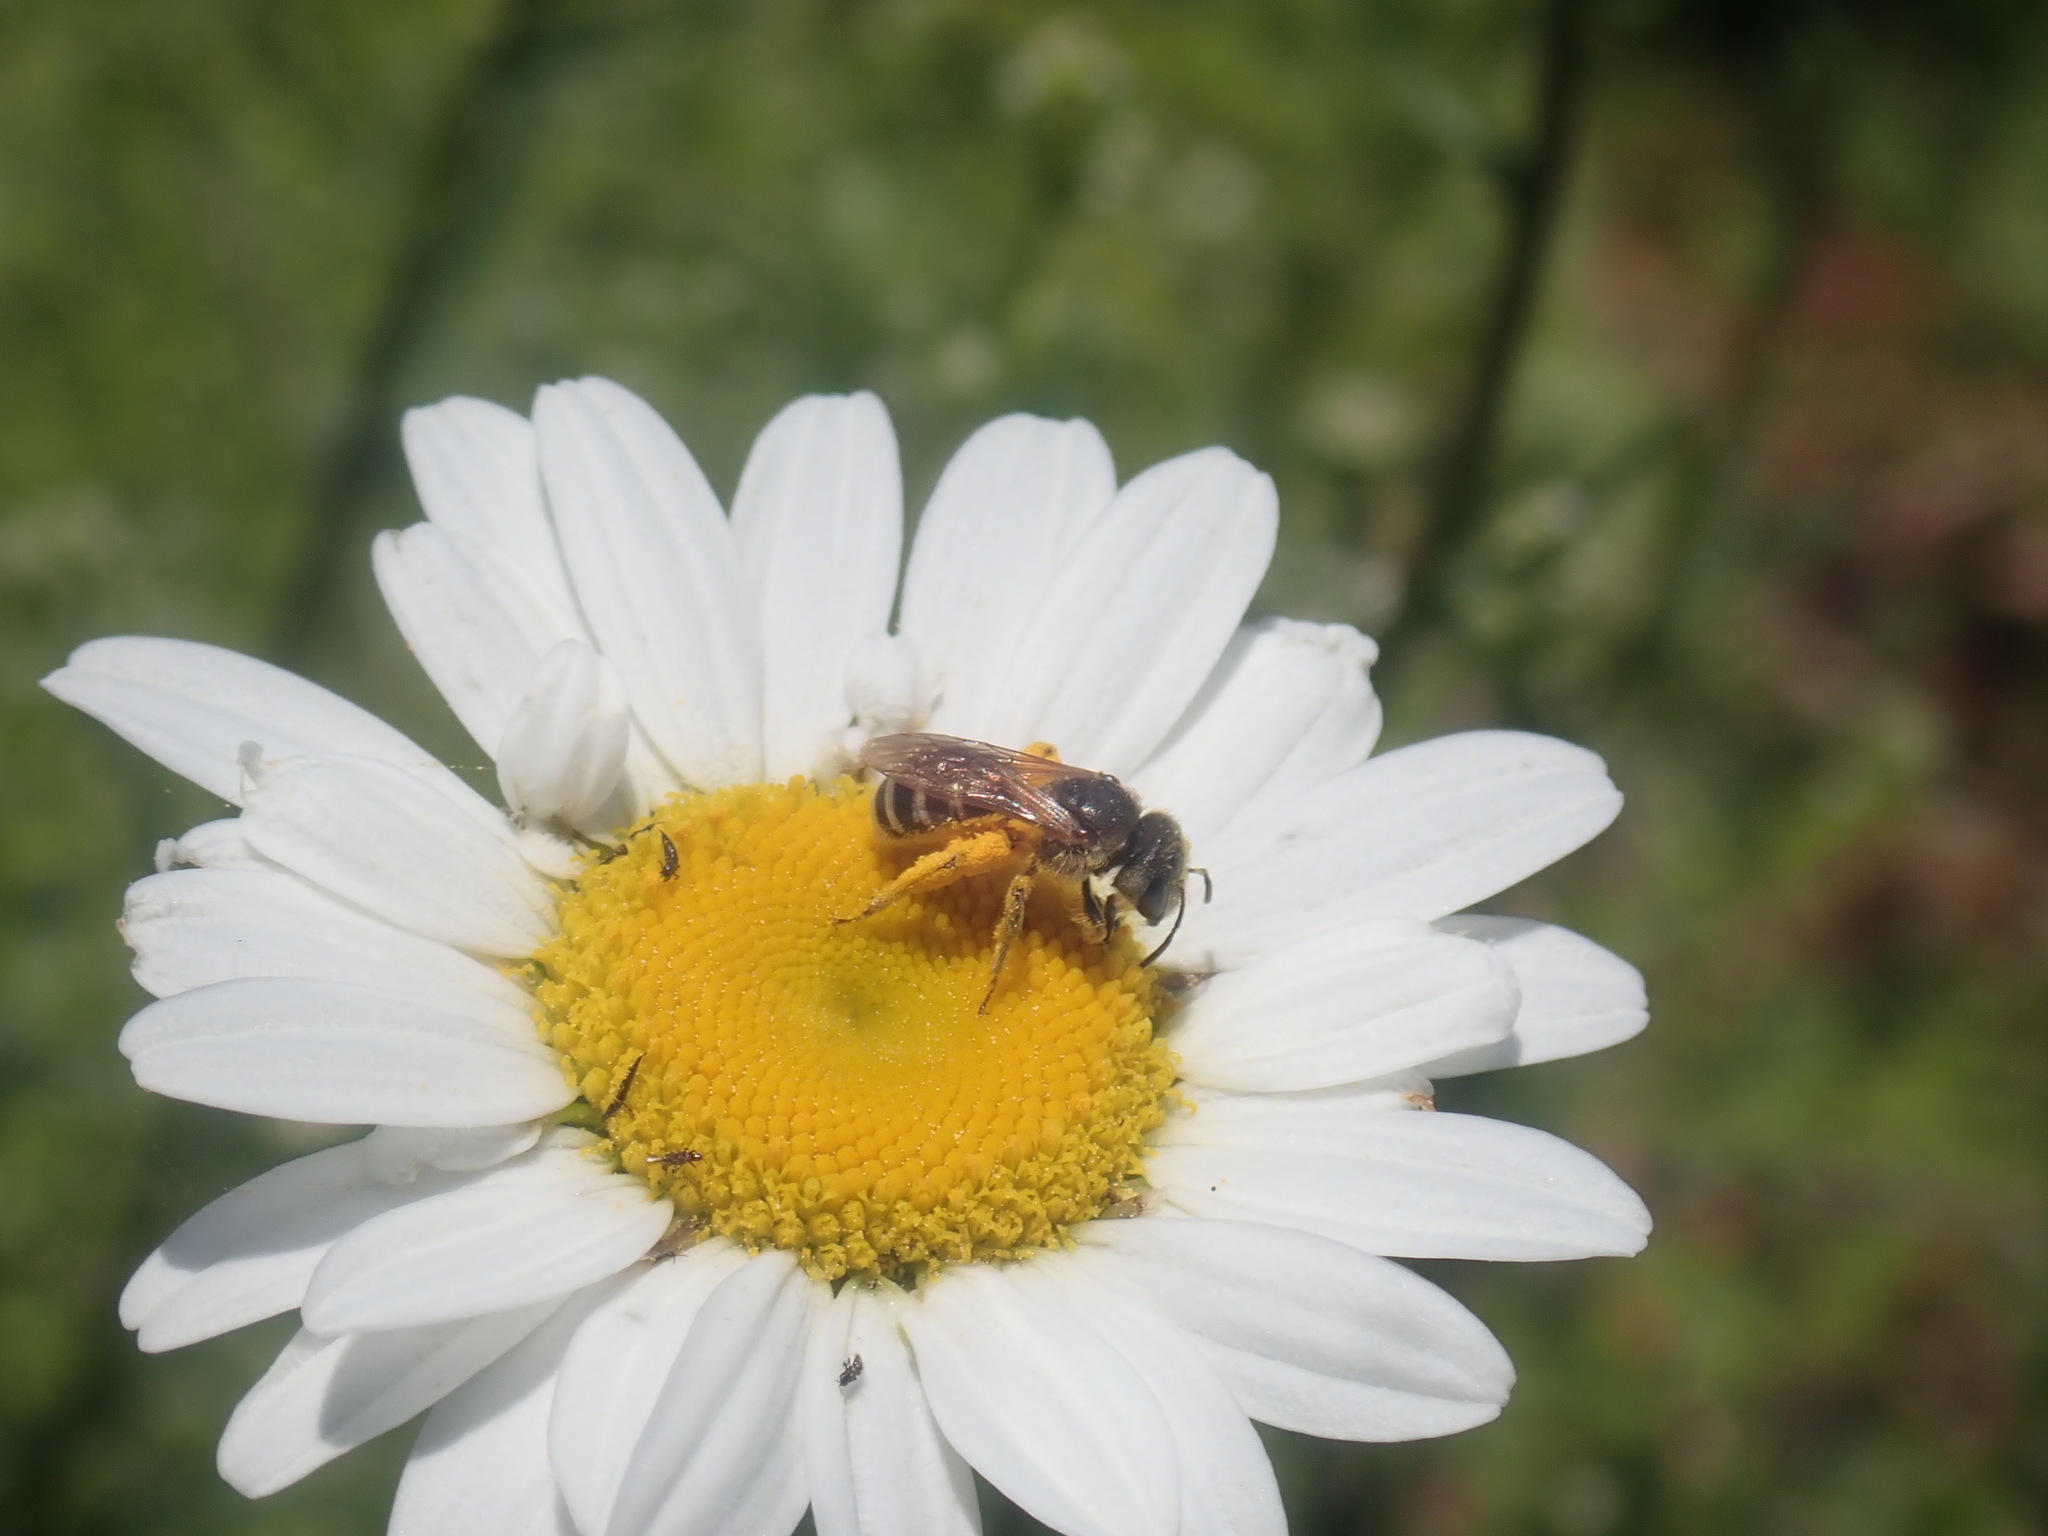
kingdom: Animalia
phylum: Arthropoda
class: Insecta
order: Hymenoptera
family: Halictidae
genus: Halictus
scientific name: Halictus ligatus
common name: Ligated furrow bee
